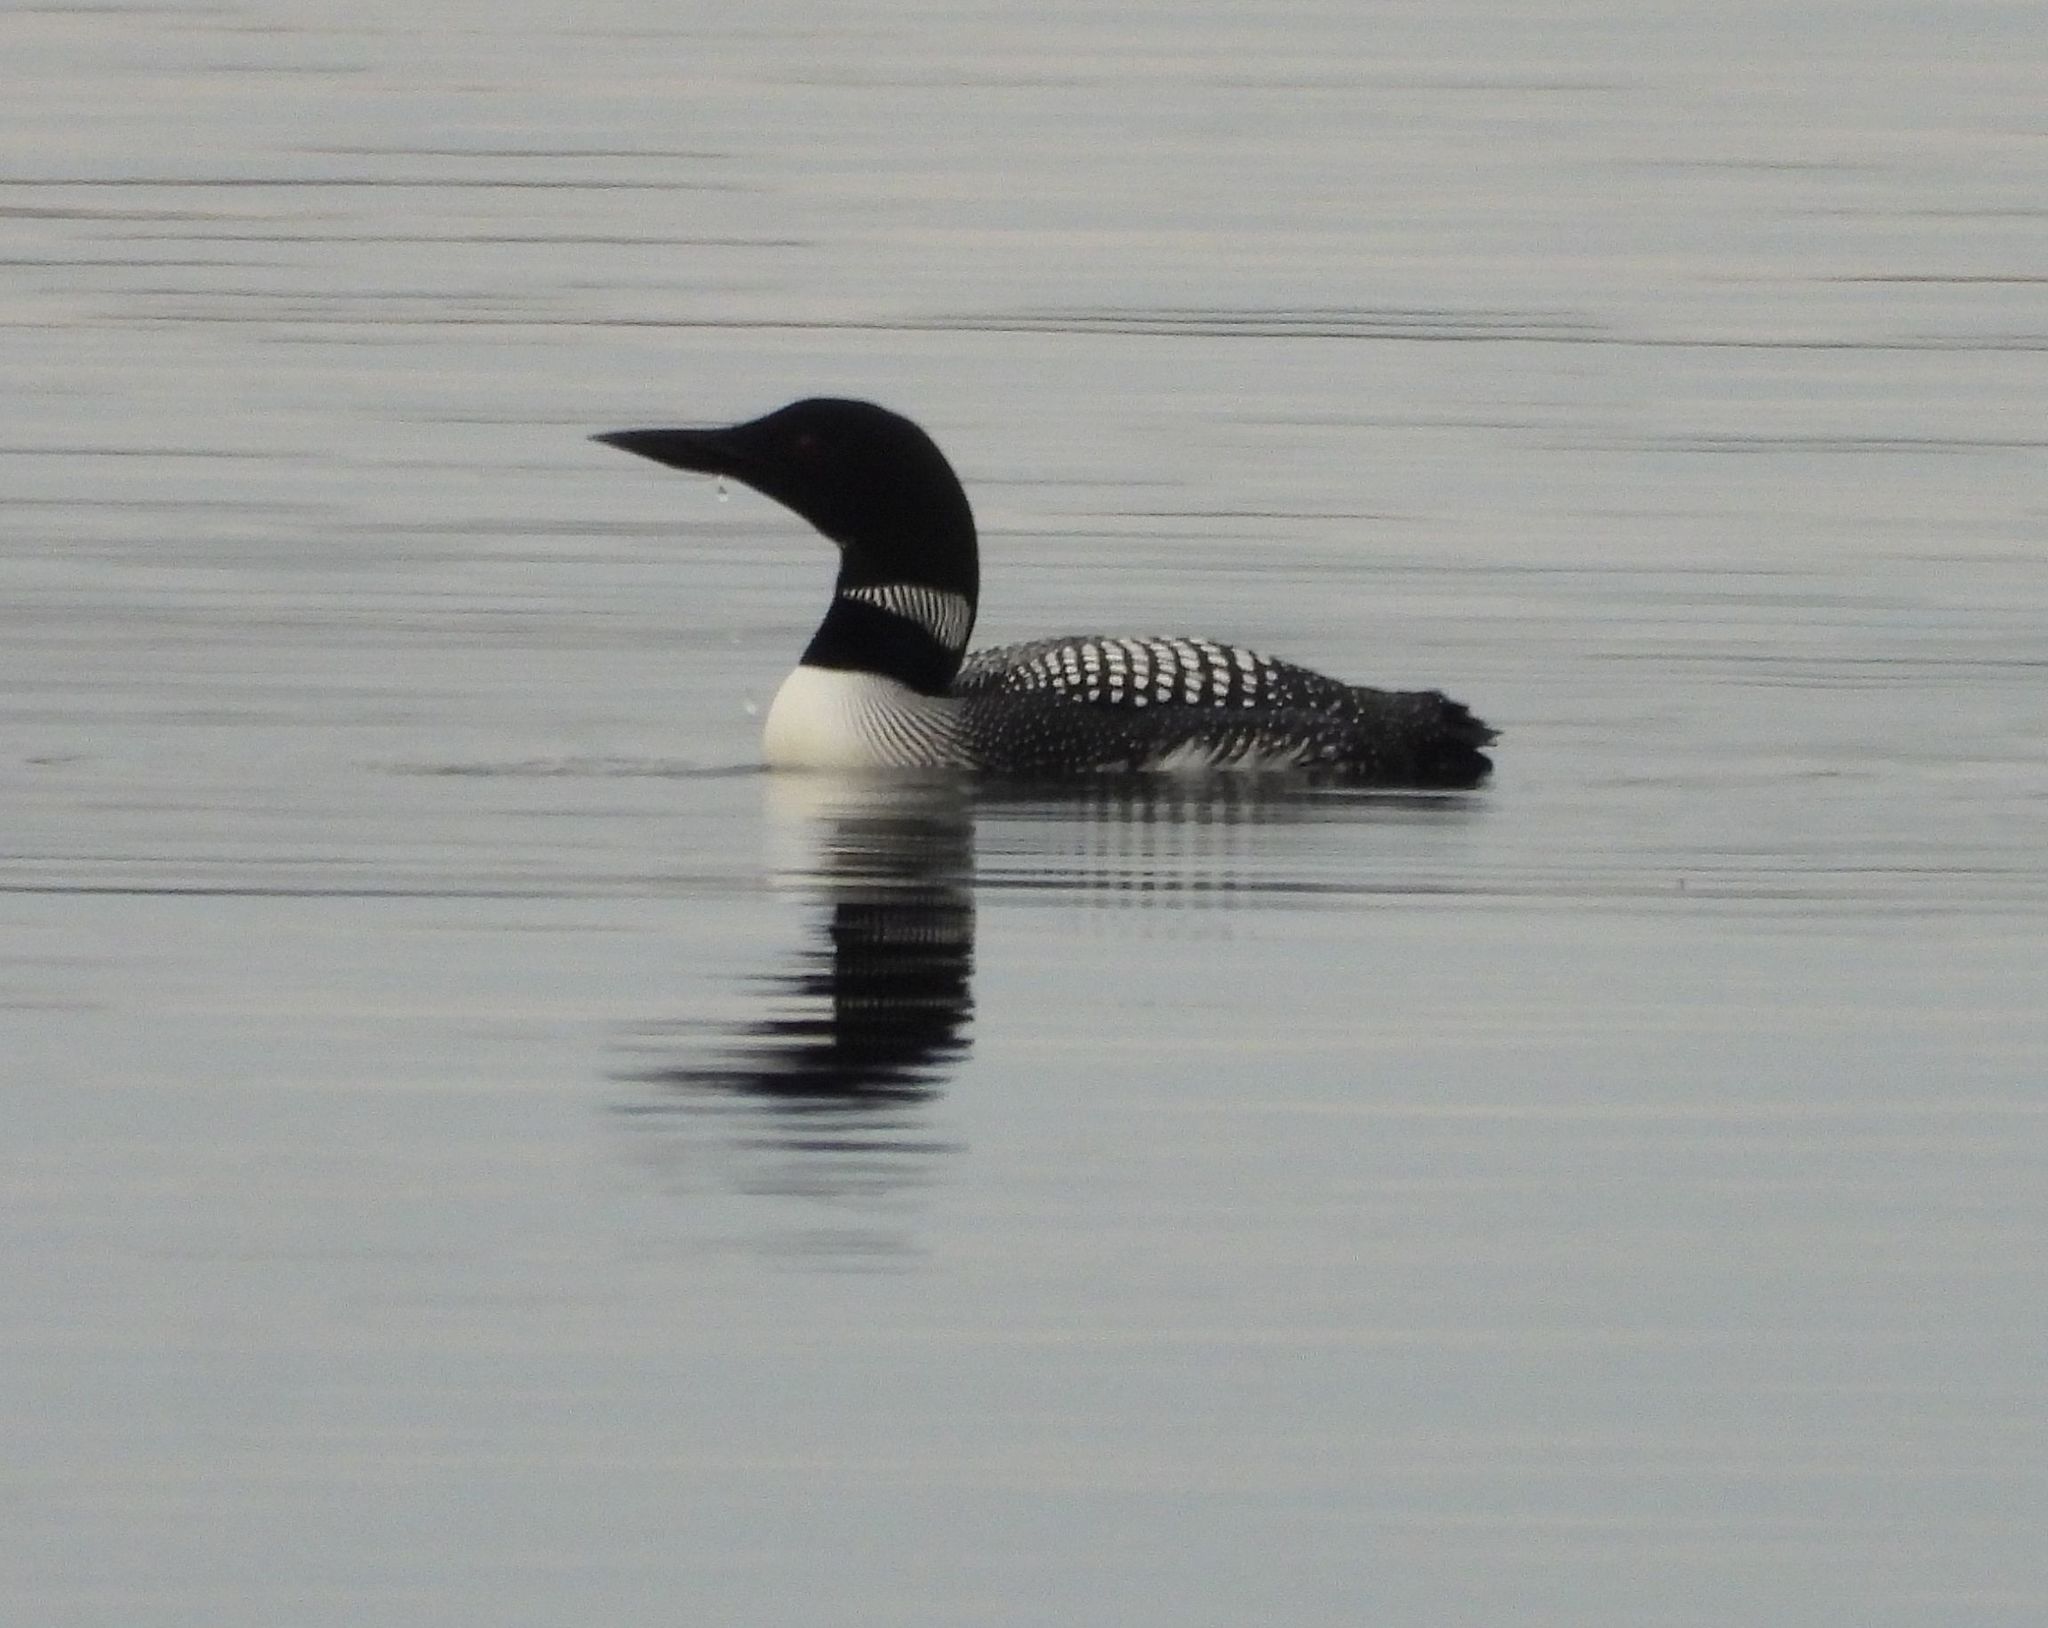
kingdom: Animalia
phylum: Chordata
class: Aves
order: Gaviiformes
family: Gaviidae
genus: Gavia
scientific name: Gavia immer
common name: Common loon
